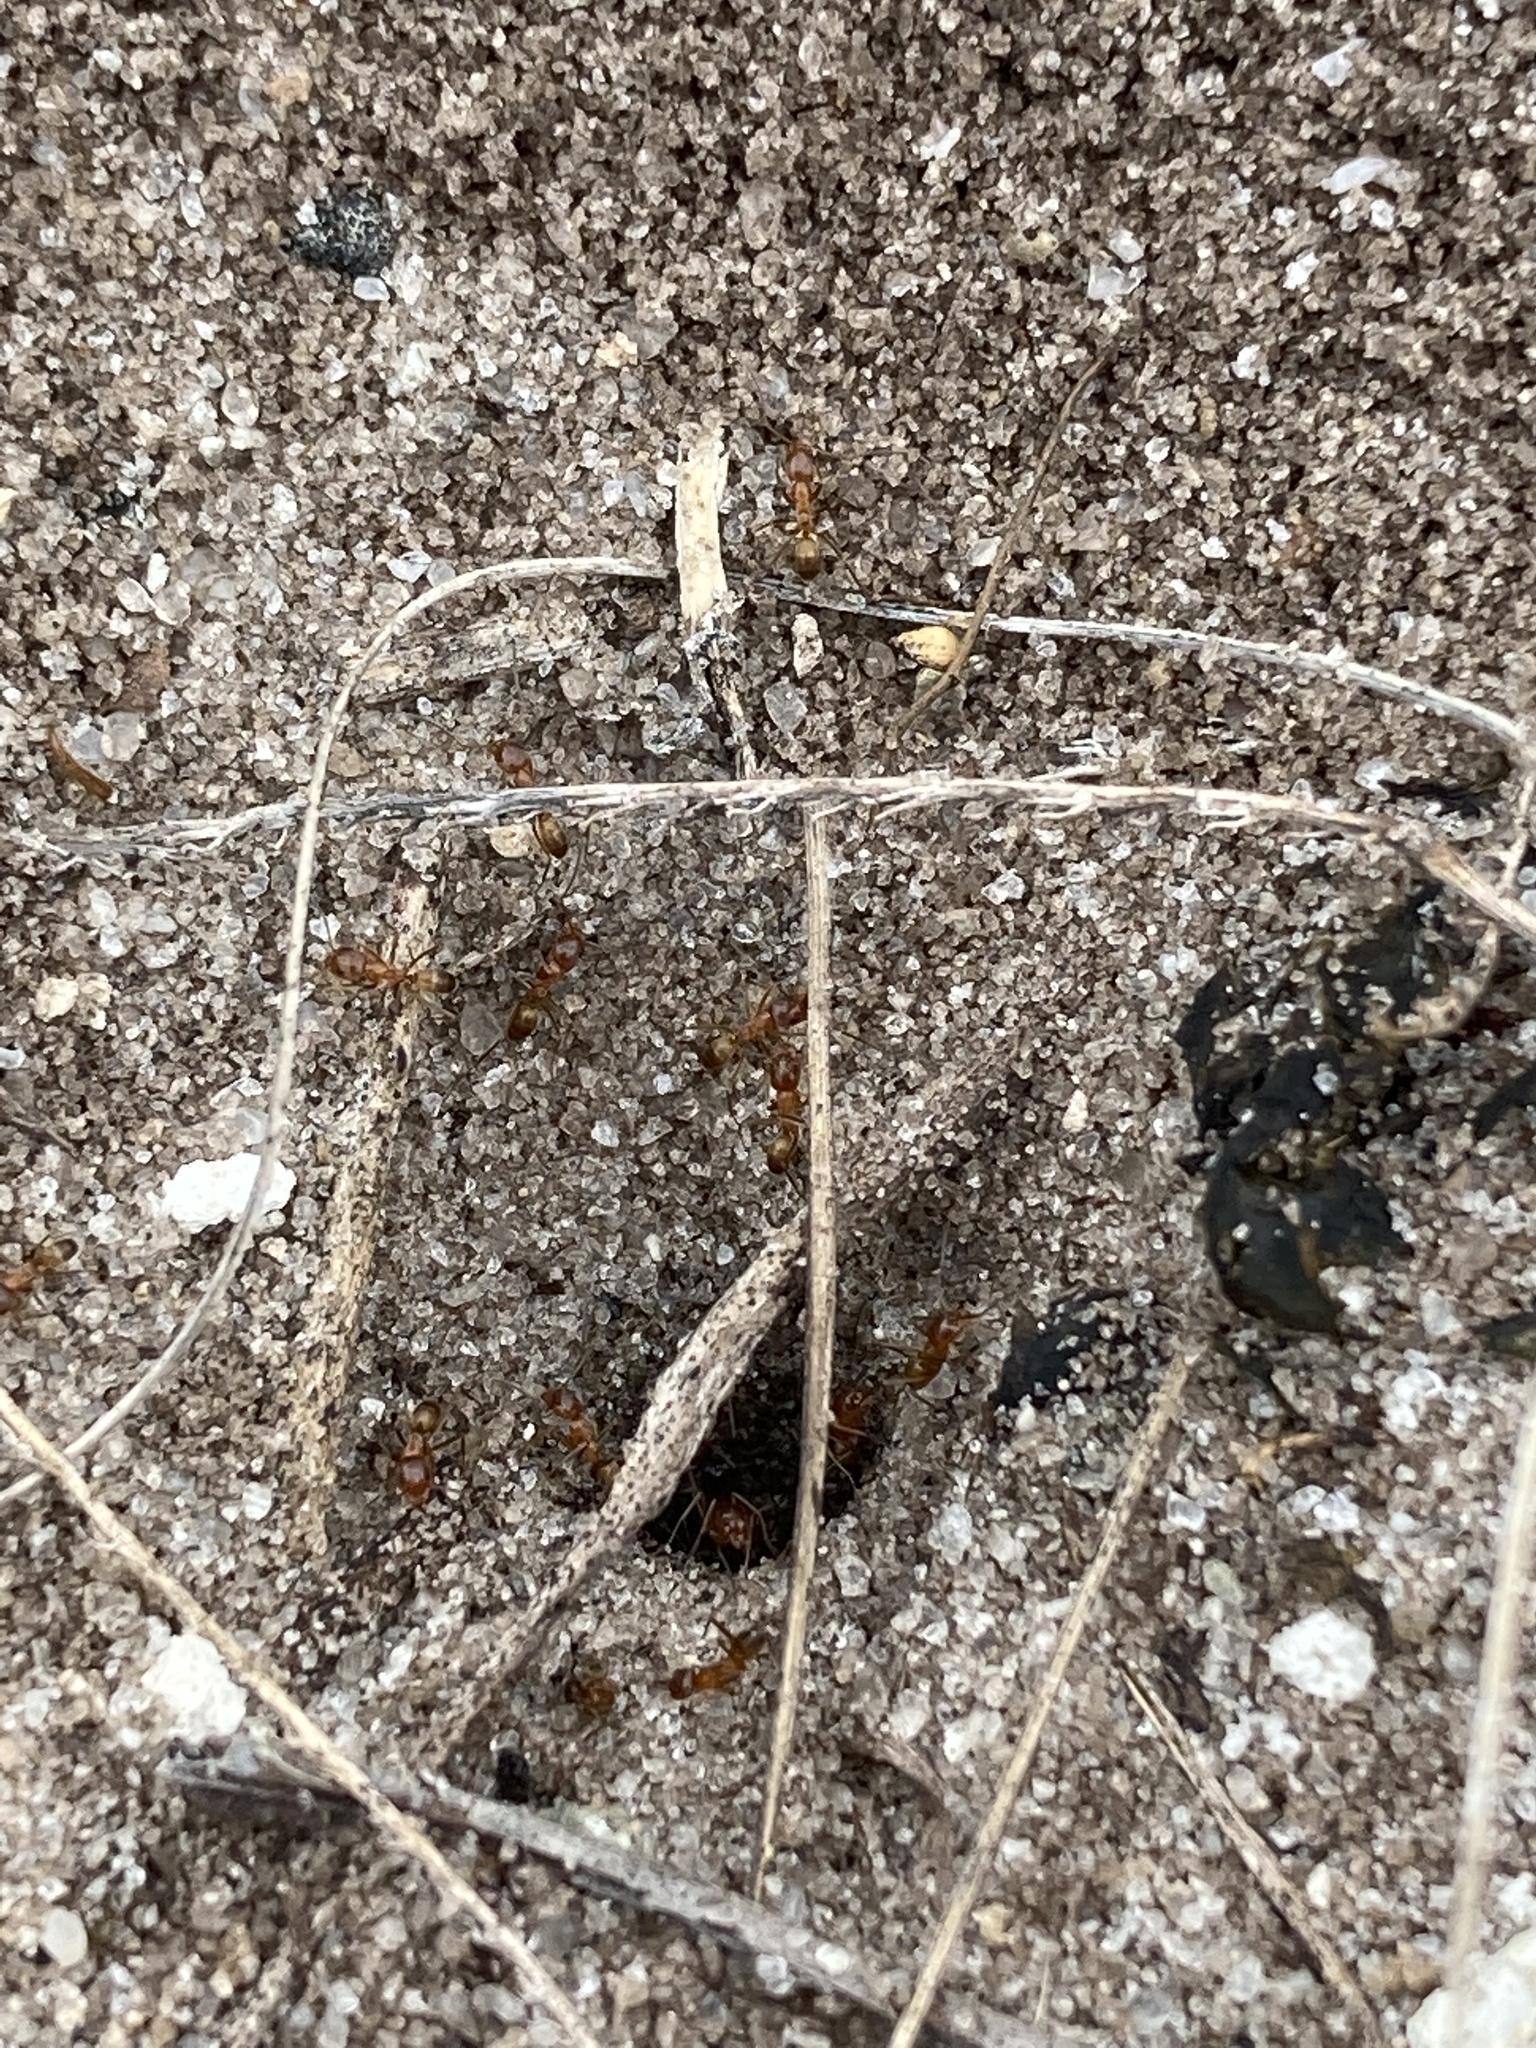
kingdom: Animalia
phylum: Arthropoda
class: Insecta
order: Hymenoptera
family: Formicidae
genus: Dorymyrmex
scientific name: Dorymyrmex bureni
